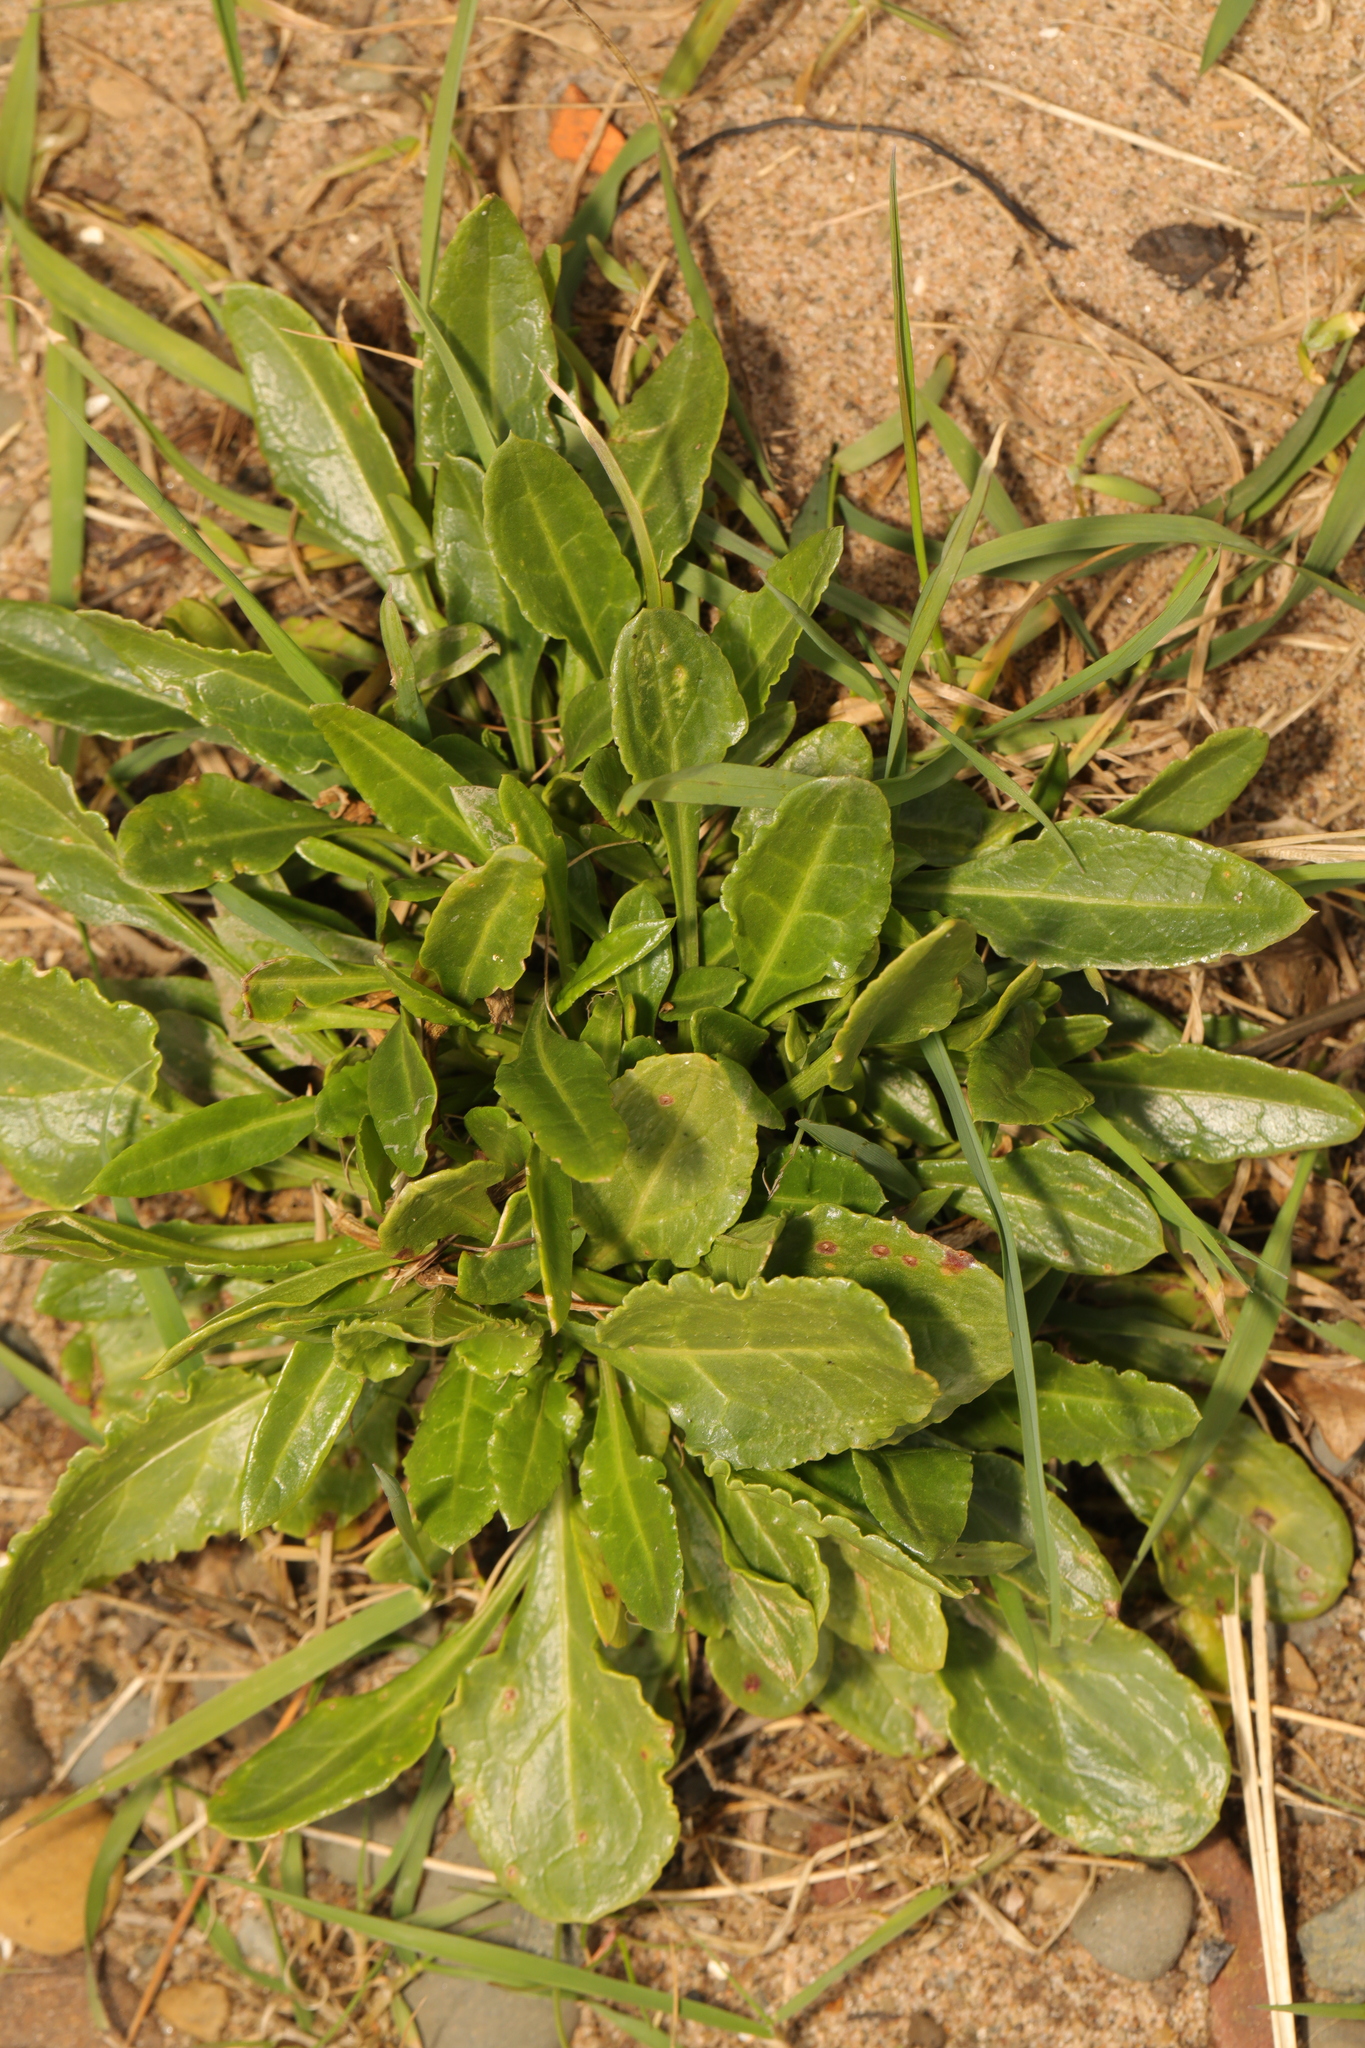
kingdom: Plantae
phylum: Tracheophyta
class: Magnoliopsida
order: Caryophyllales
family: Amaranthaceae
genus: Beta
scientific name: Beta vulgaris
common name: Beet
